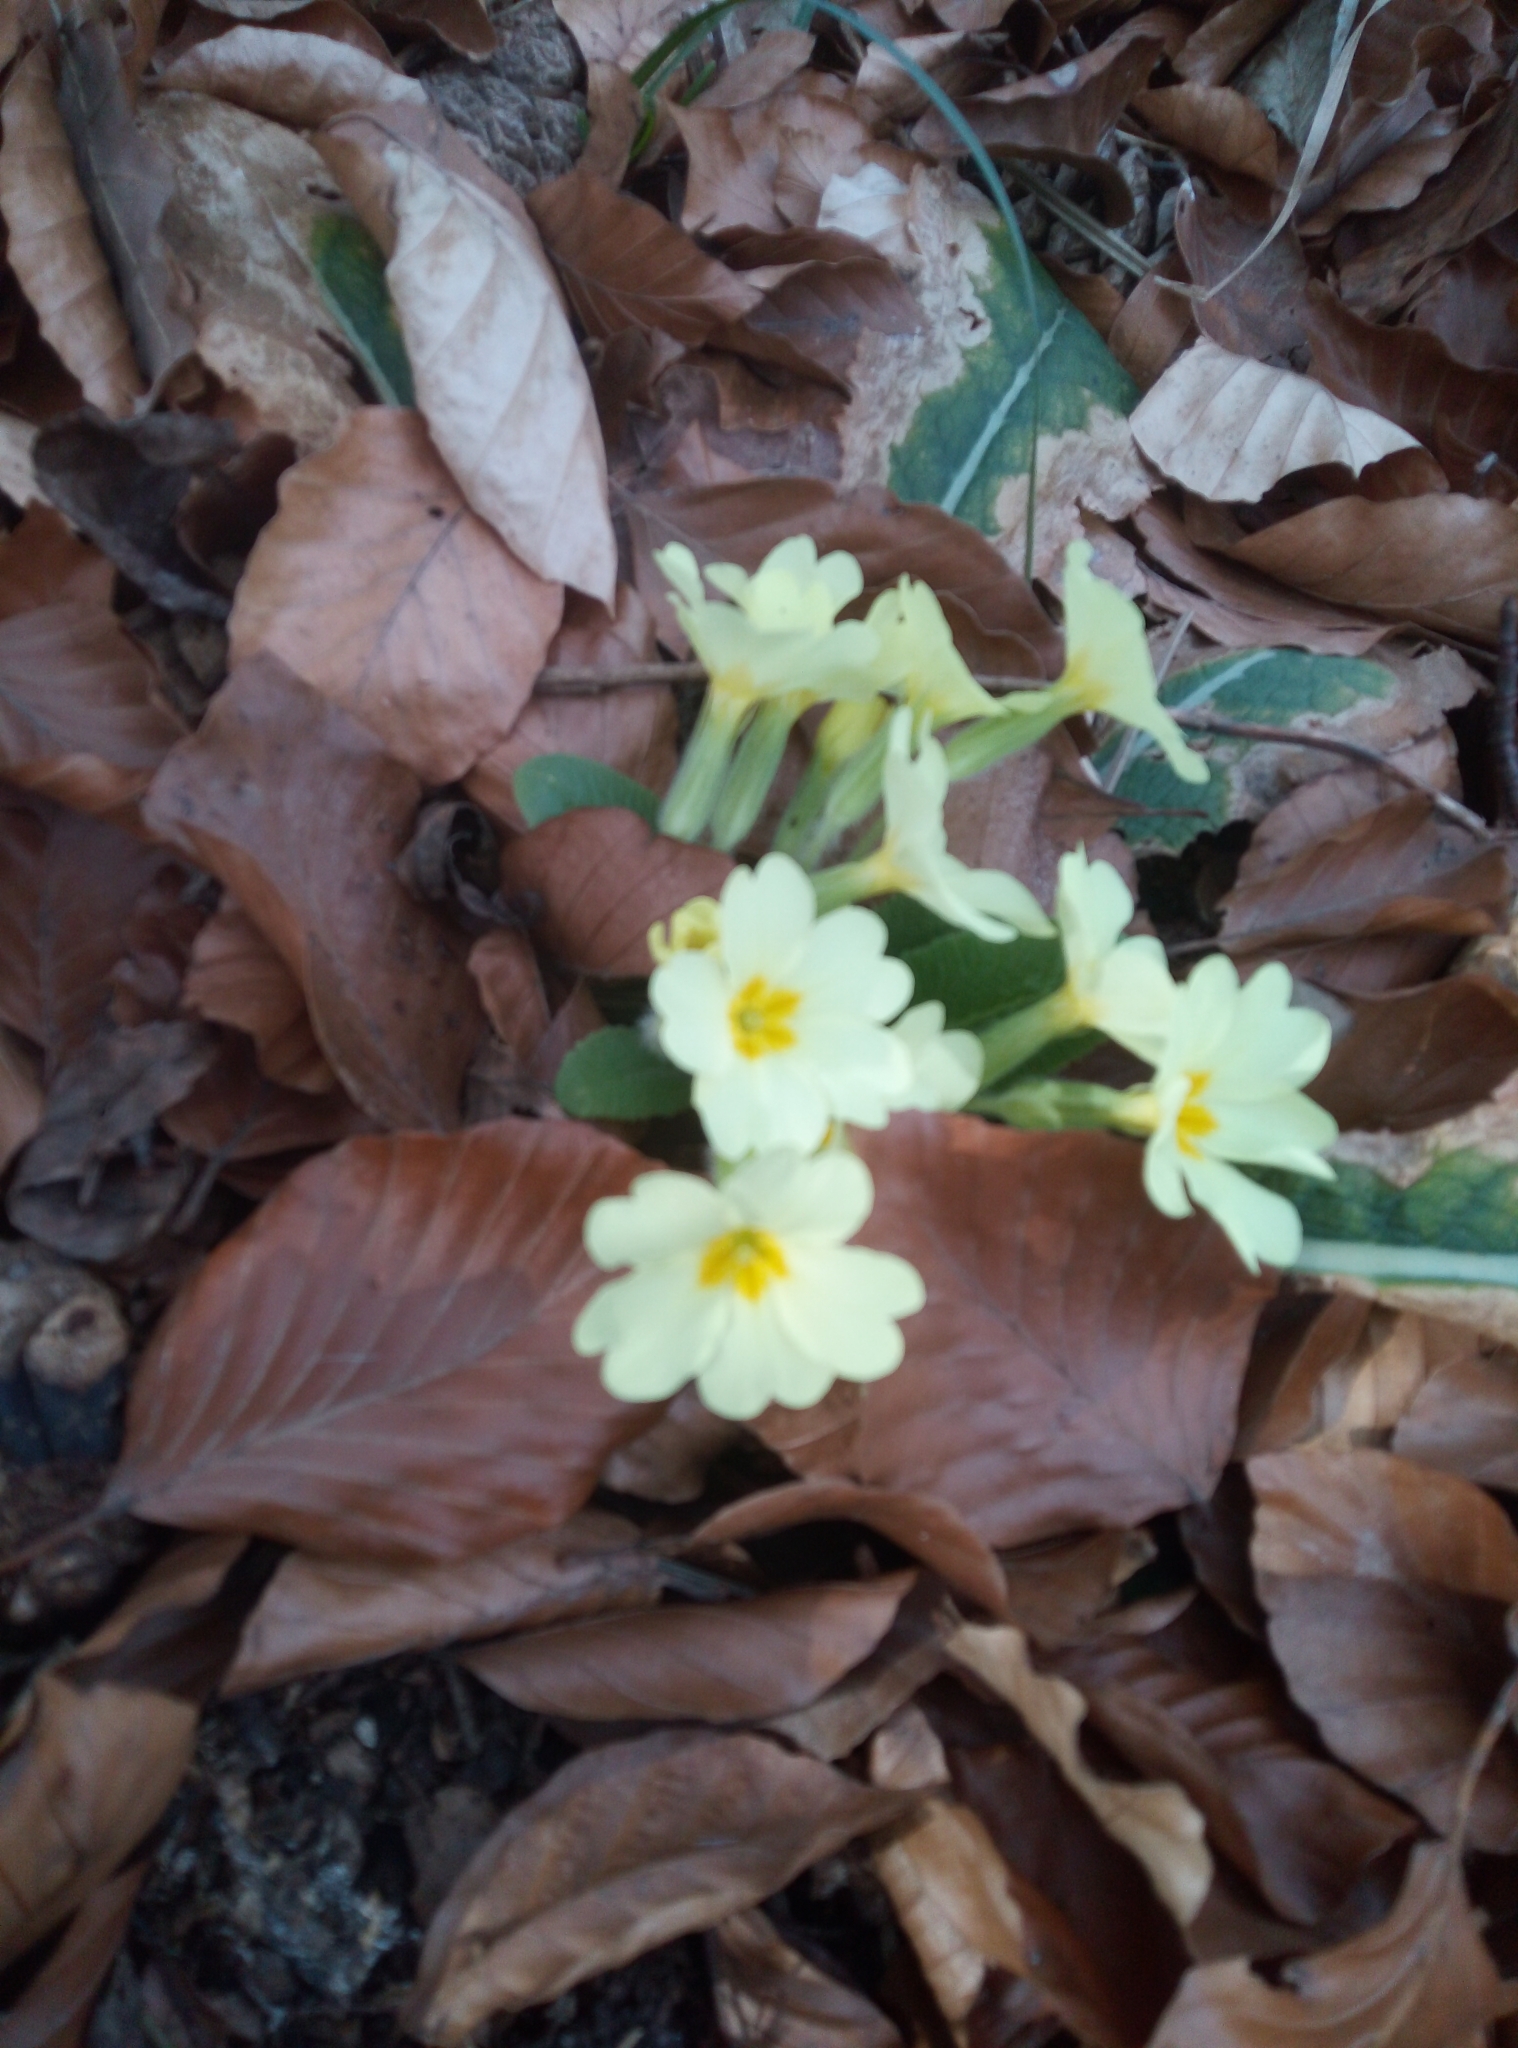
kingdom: Plantae
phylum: Tracheophyta
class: Magnoliopsida
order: Ericales
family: Primulaceae
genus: Primula
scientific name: Primula vulgaris
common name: Primrose
